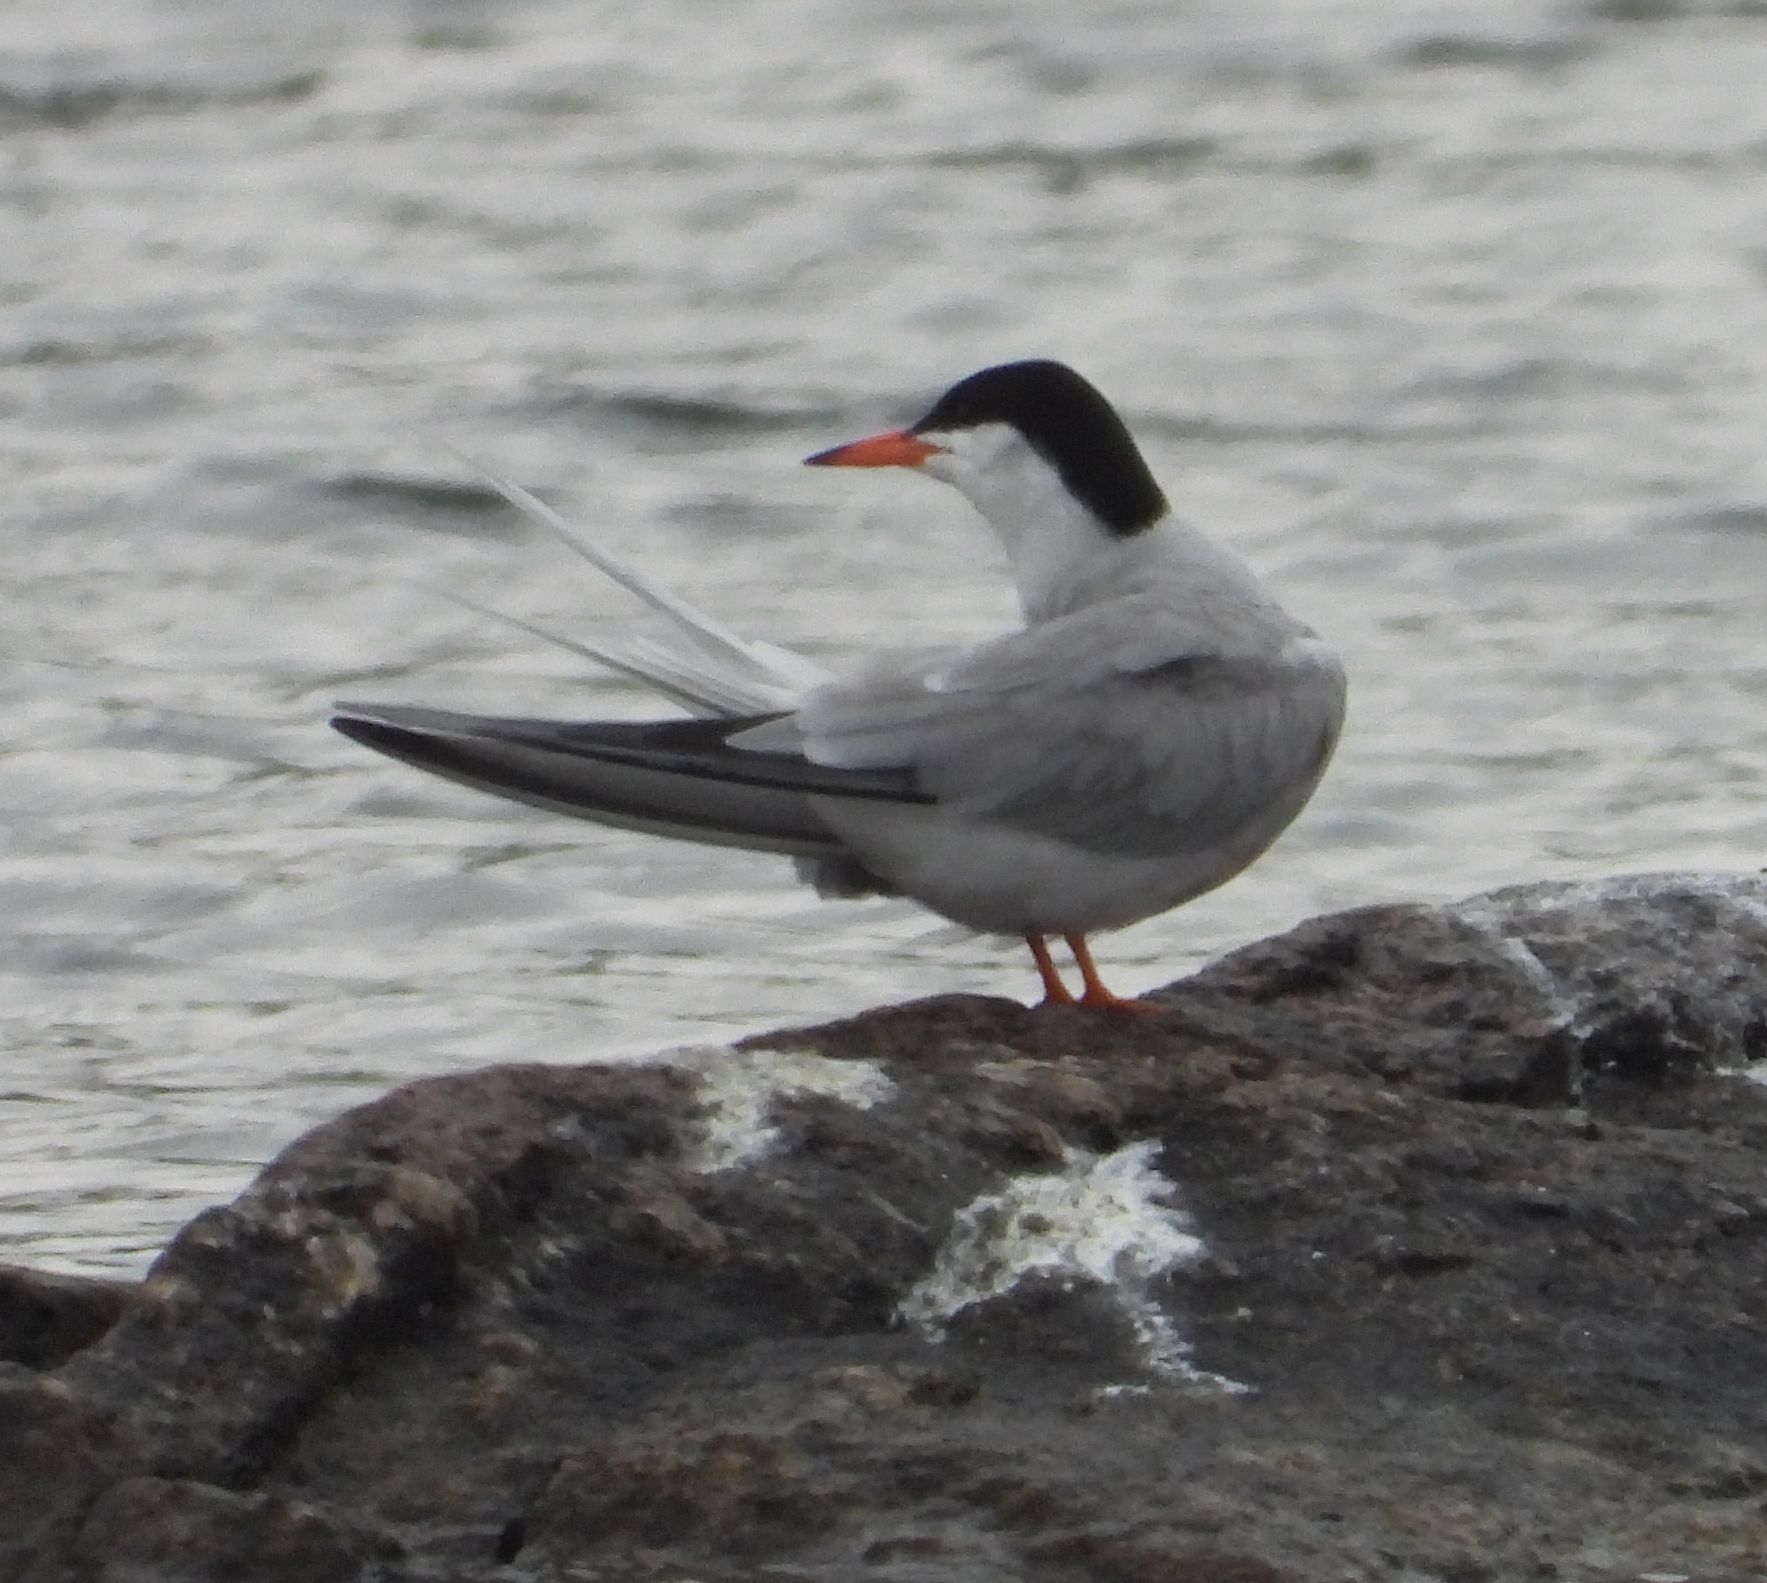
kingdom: Animalia
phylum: Chordata
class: Aves
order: Charadriiformes
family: Laridae
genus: Sterna
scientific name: Sterna hirundo
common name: Common tern
